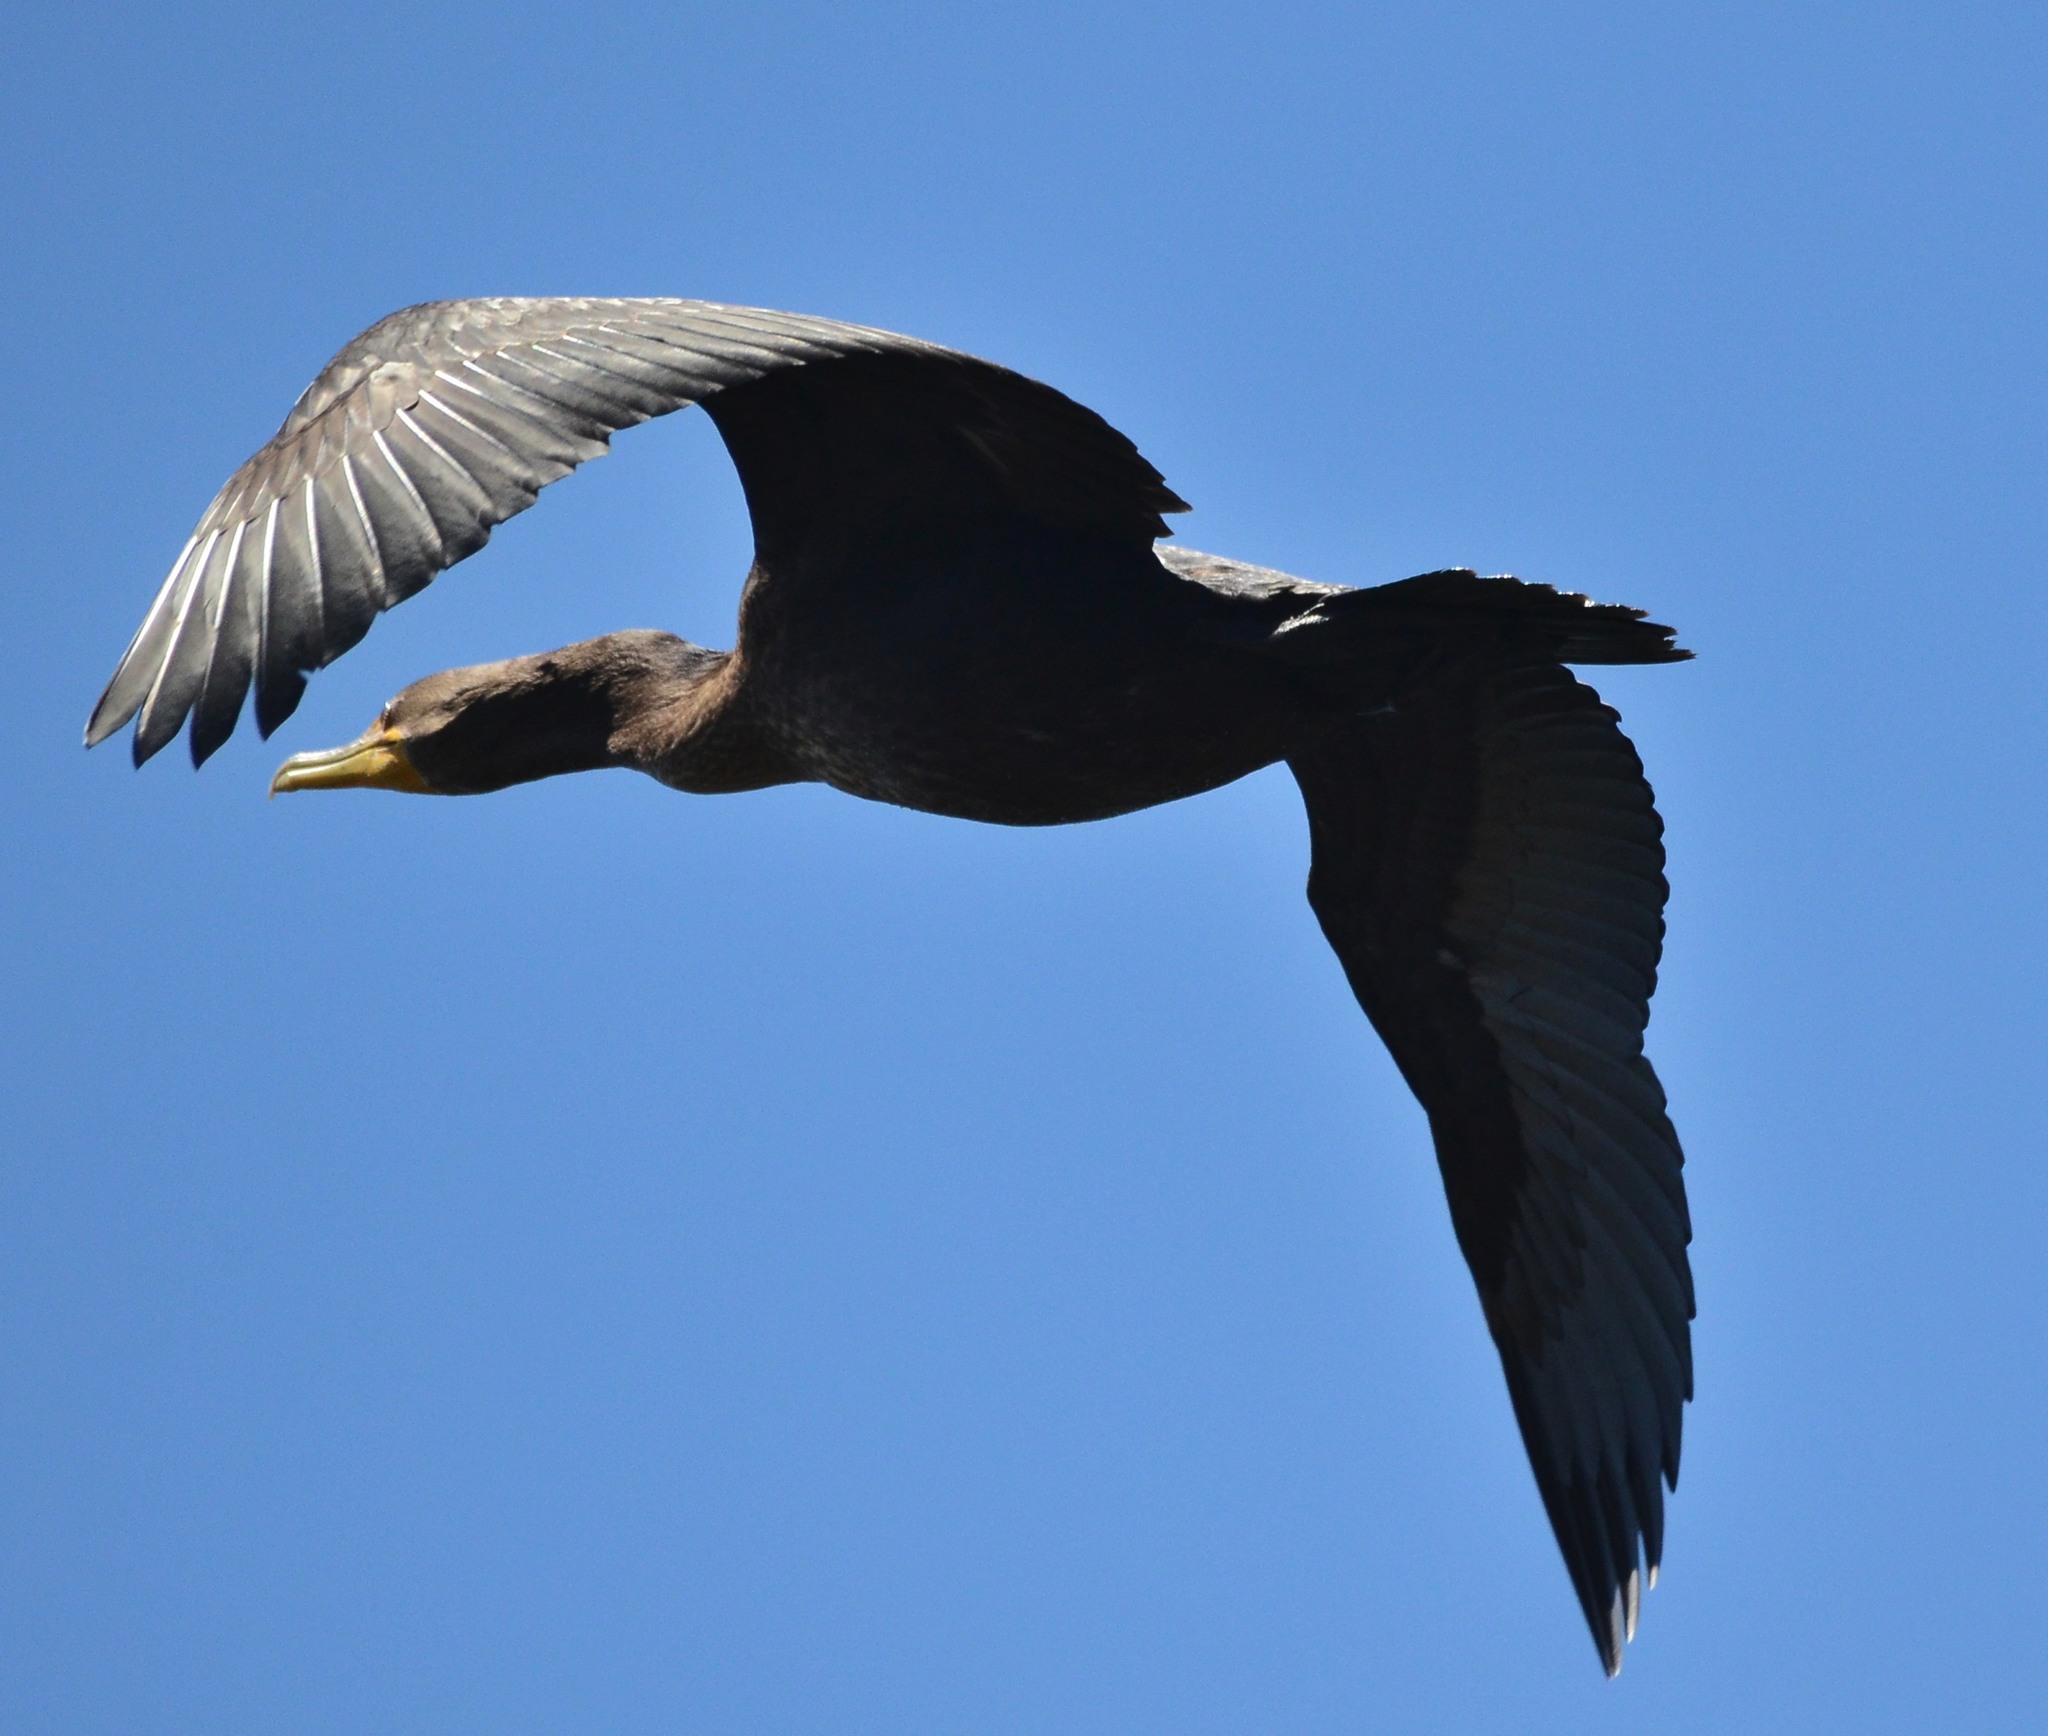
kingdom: Animalia
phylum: Chordata
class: Aves
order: Suliformes
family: Phalacrocoracidae
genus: Phalacrocorax
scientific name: Phalacrocorax auritus
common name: Double-crested cormorant
